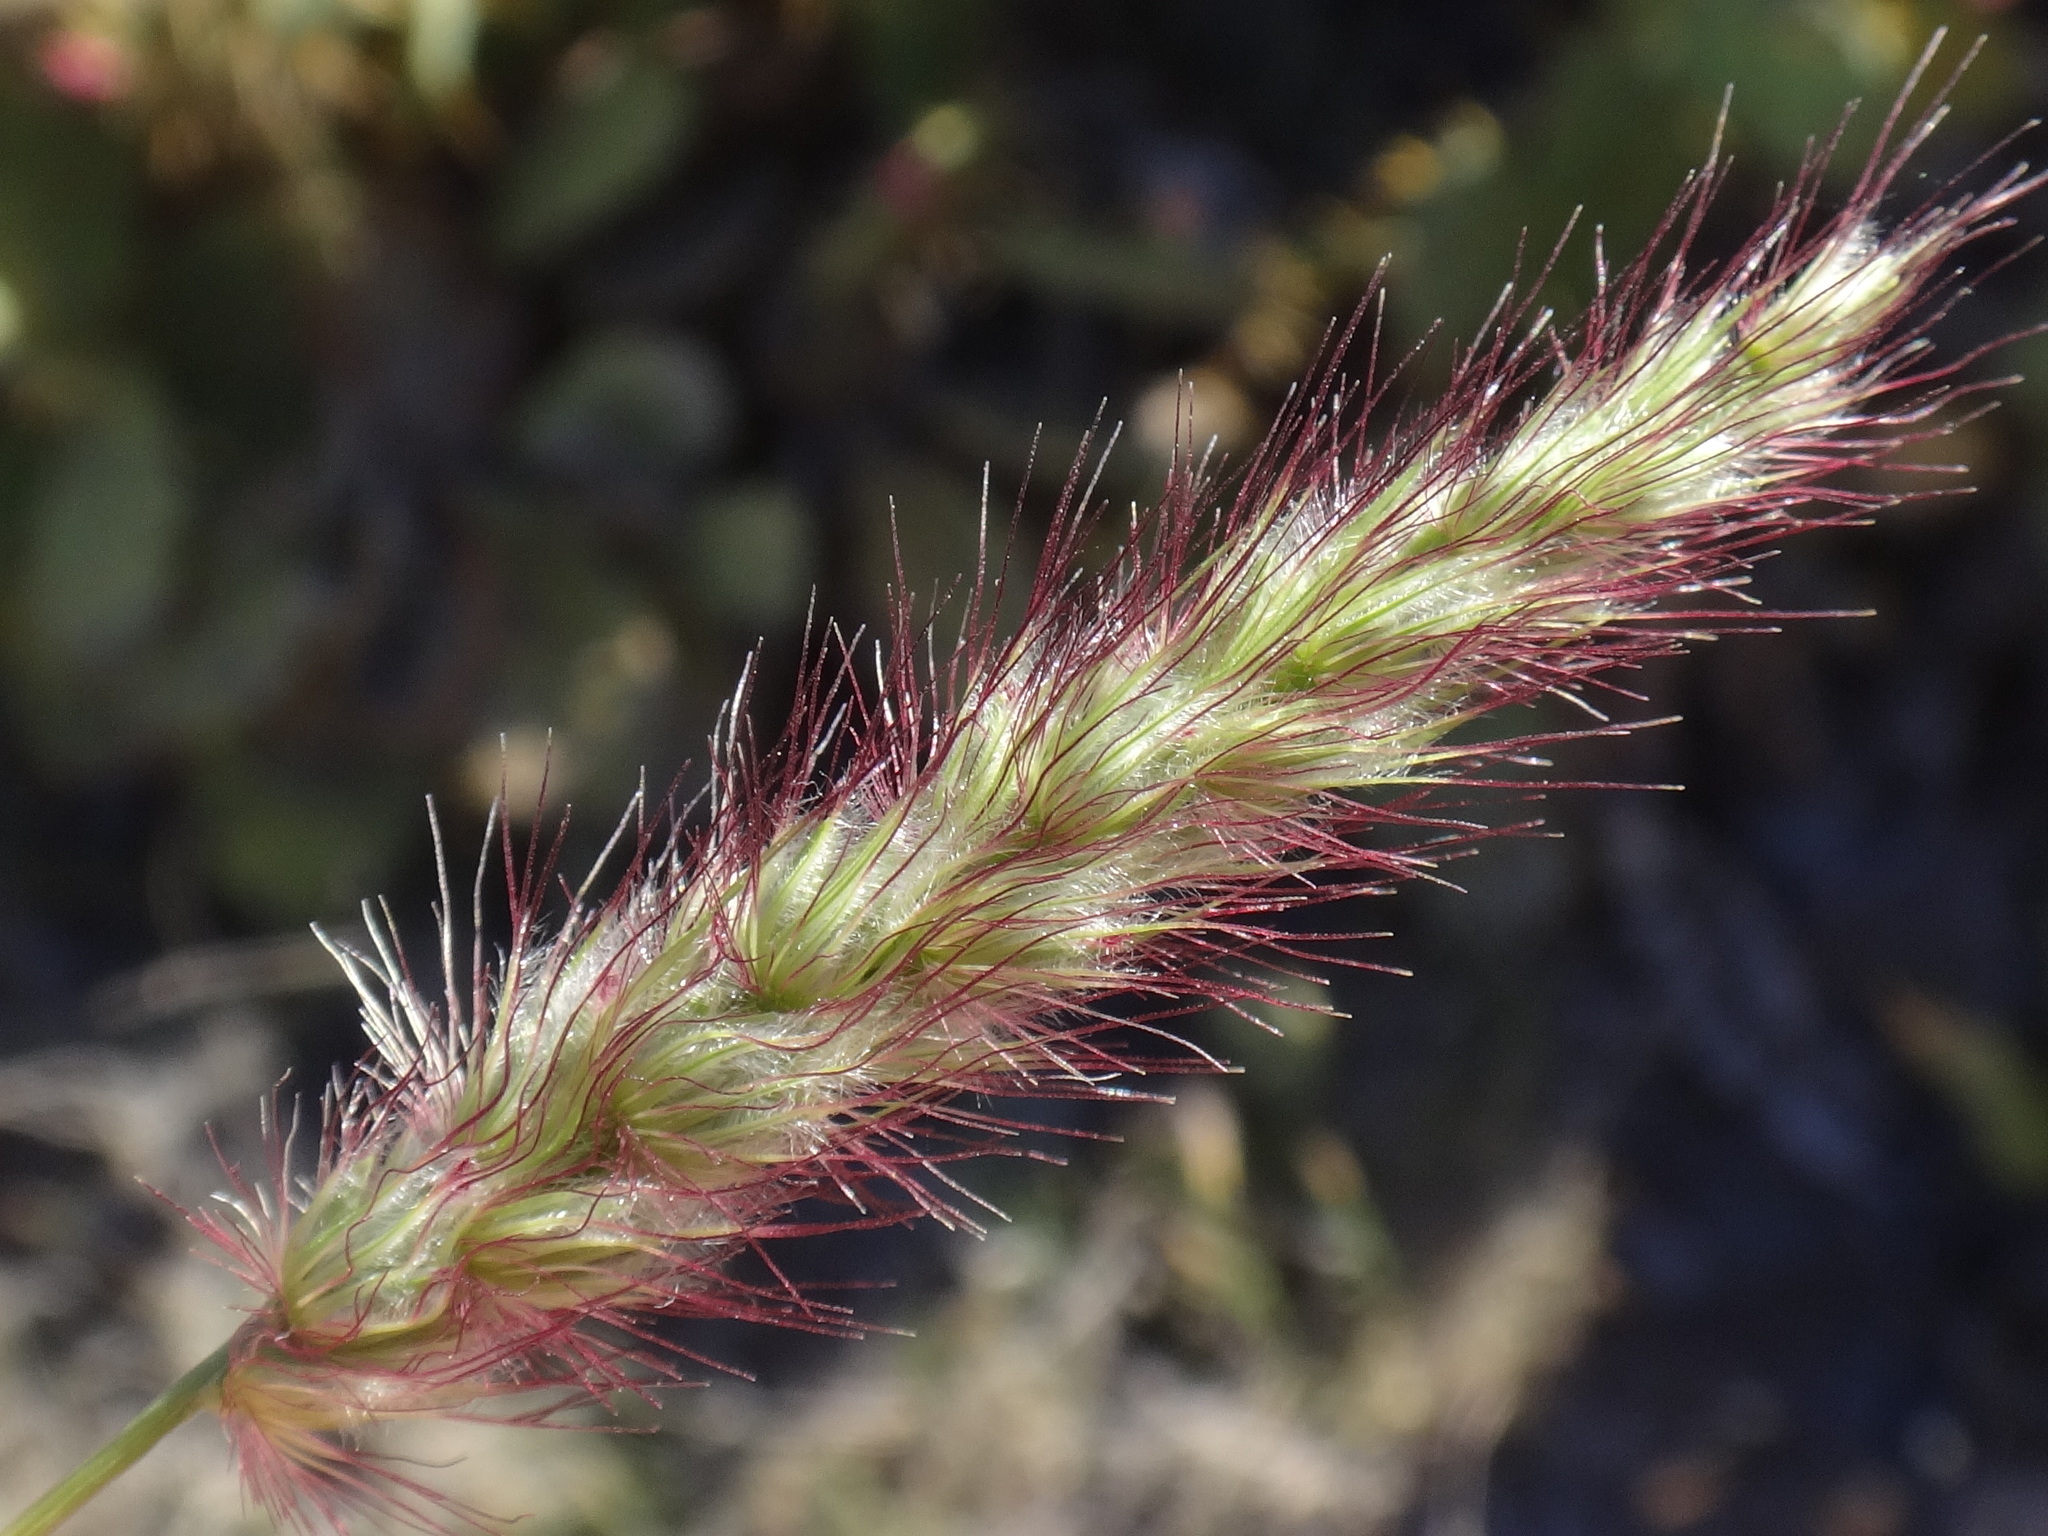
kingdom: Plantae
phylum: Tracheophyta
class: Liliopsida
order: Poales
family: Poaceae
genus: Cenchrus
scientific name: Cenchrus ciliaris
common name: Buffelgrass
